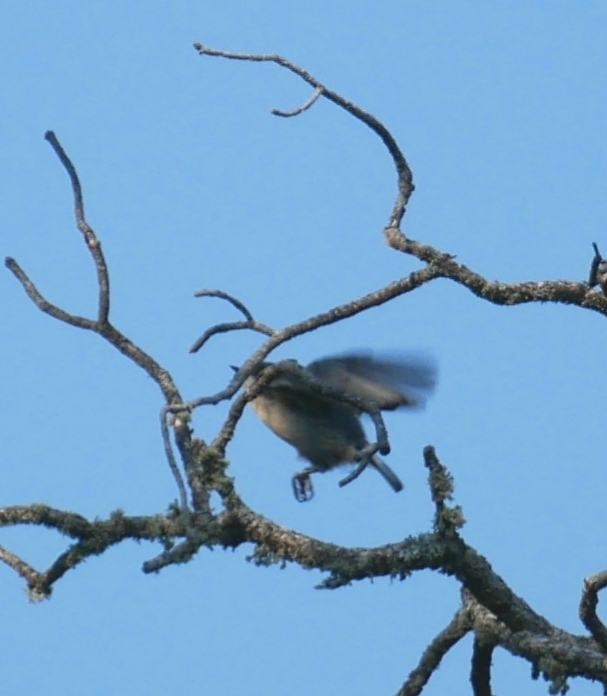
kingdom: Animalia
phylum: Chordata
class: Aves
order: Passeriformes
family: Sittidae
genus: Sitta
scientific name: Sitta pygmaea
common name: Pygmy nuthatch
